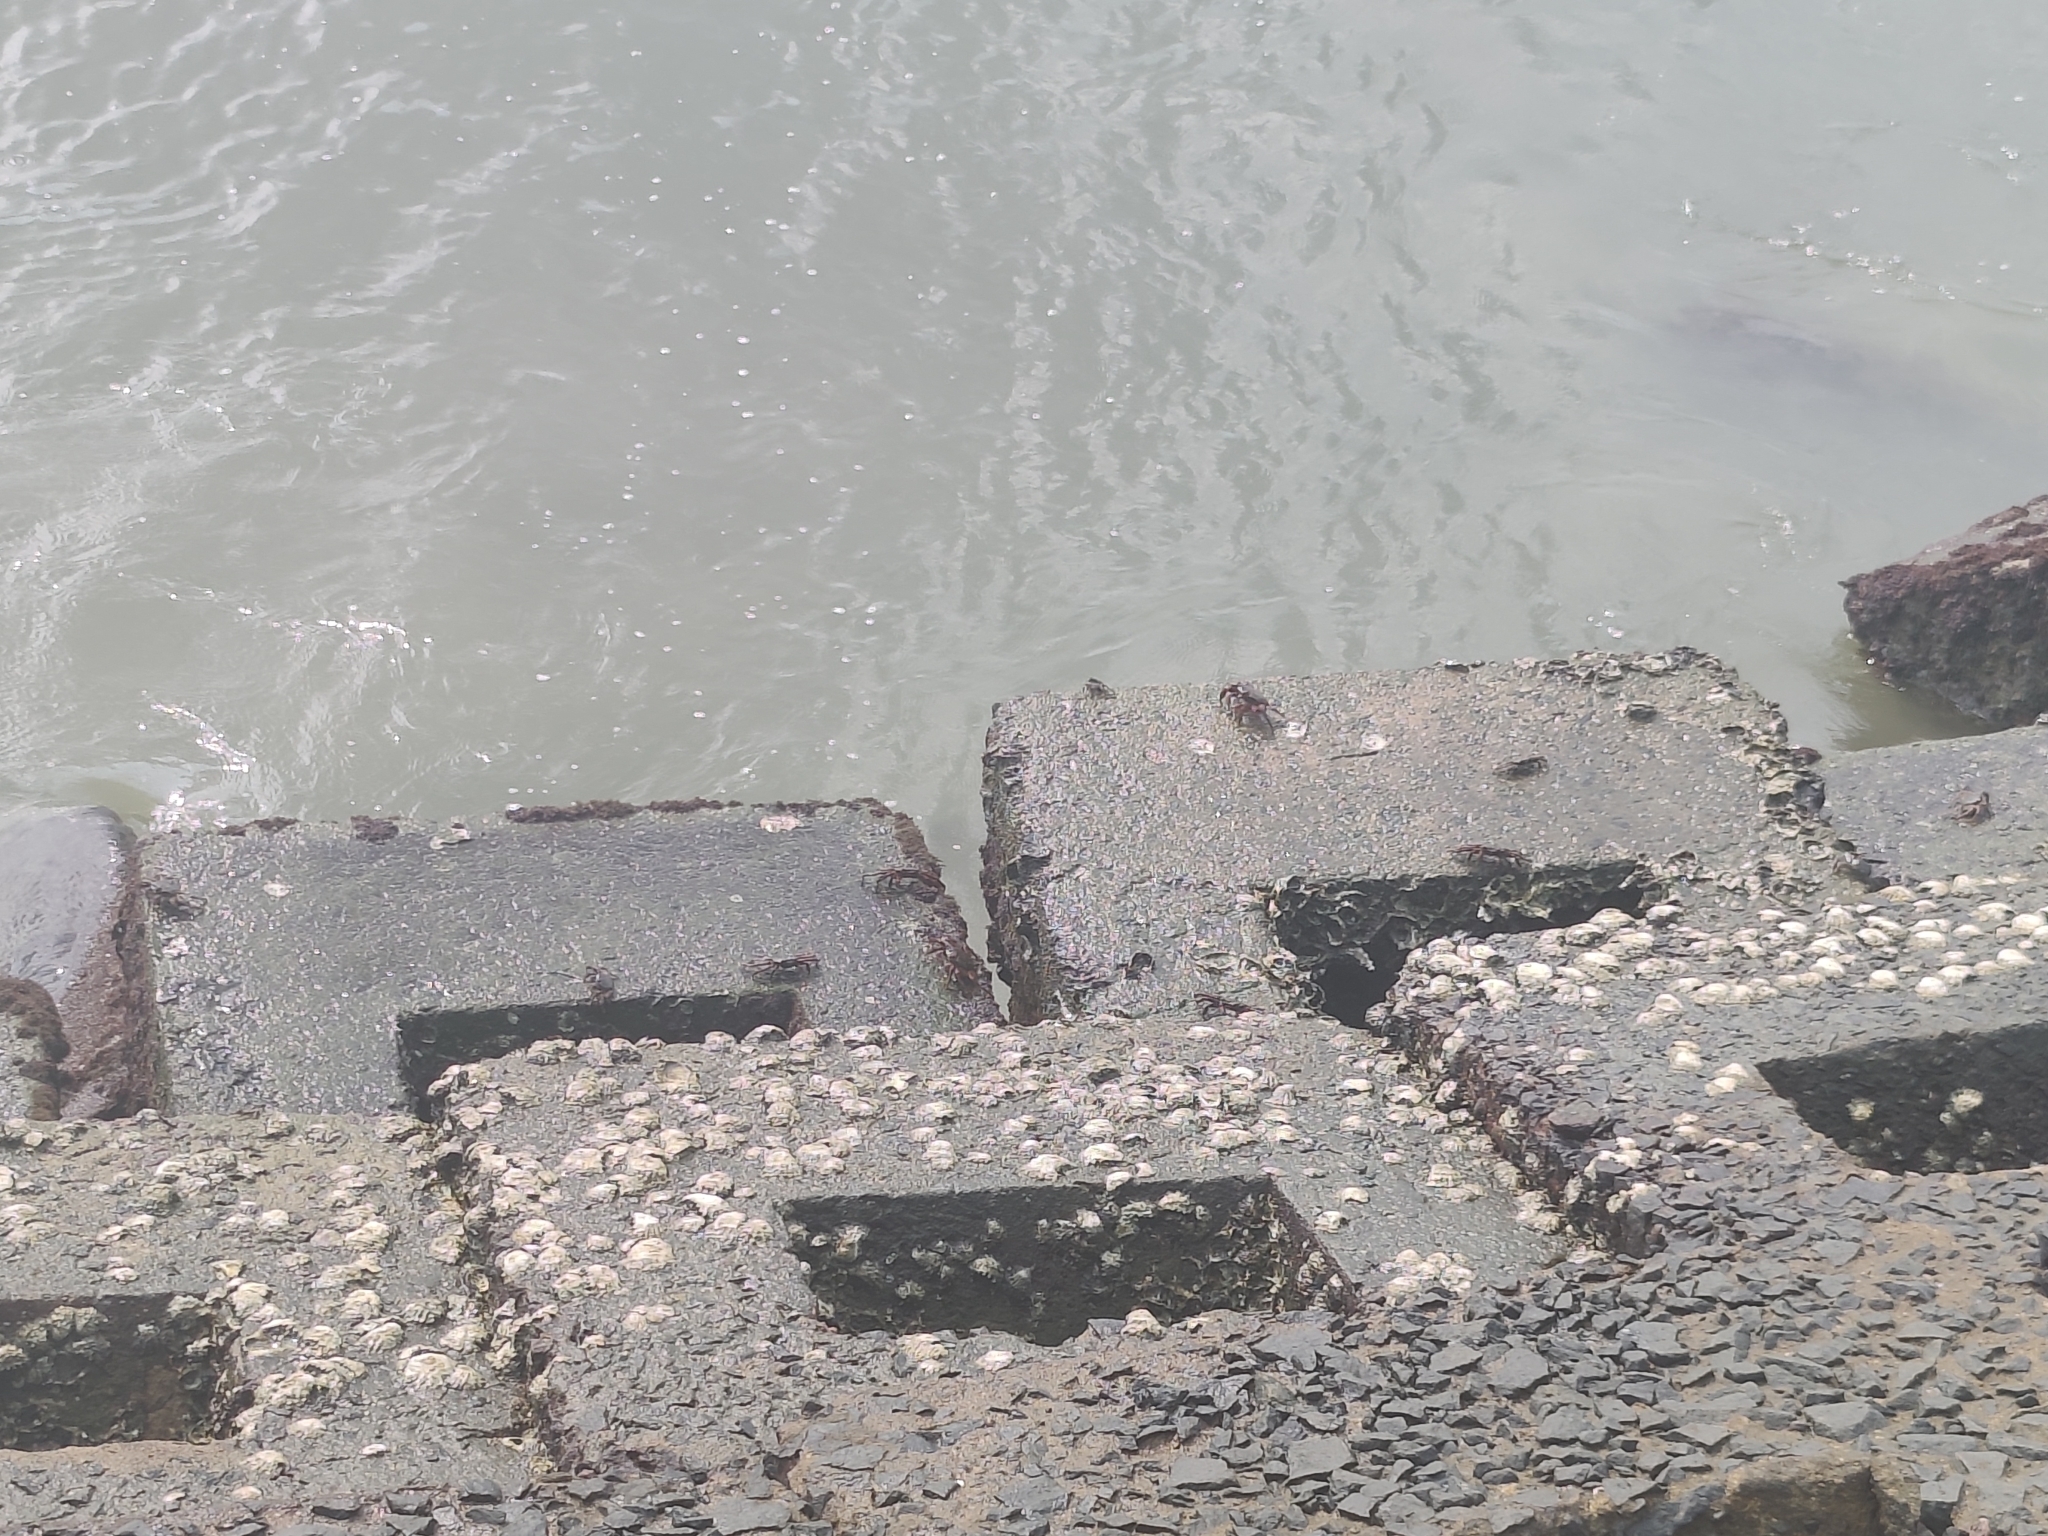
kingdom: Animalia
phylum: Arthropoda
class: Malacostraca
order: Decapoda
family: Grapsidae
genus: Grapsus
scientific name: Grapsus albolineatus
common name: Mottled lightfoot crab
